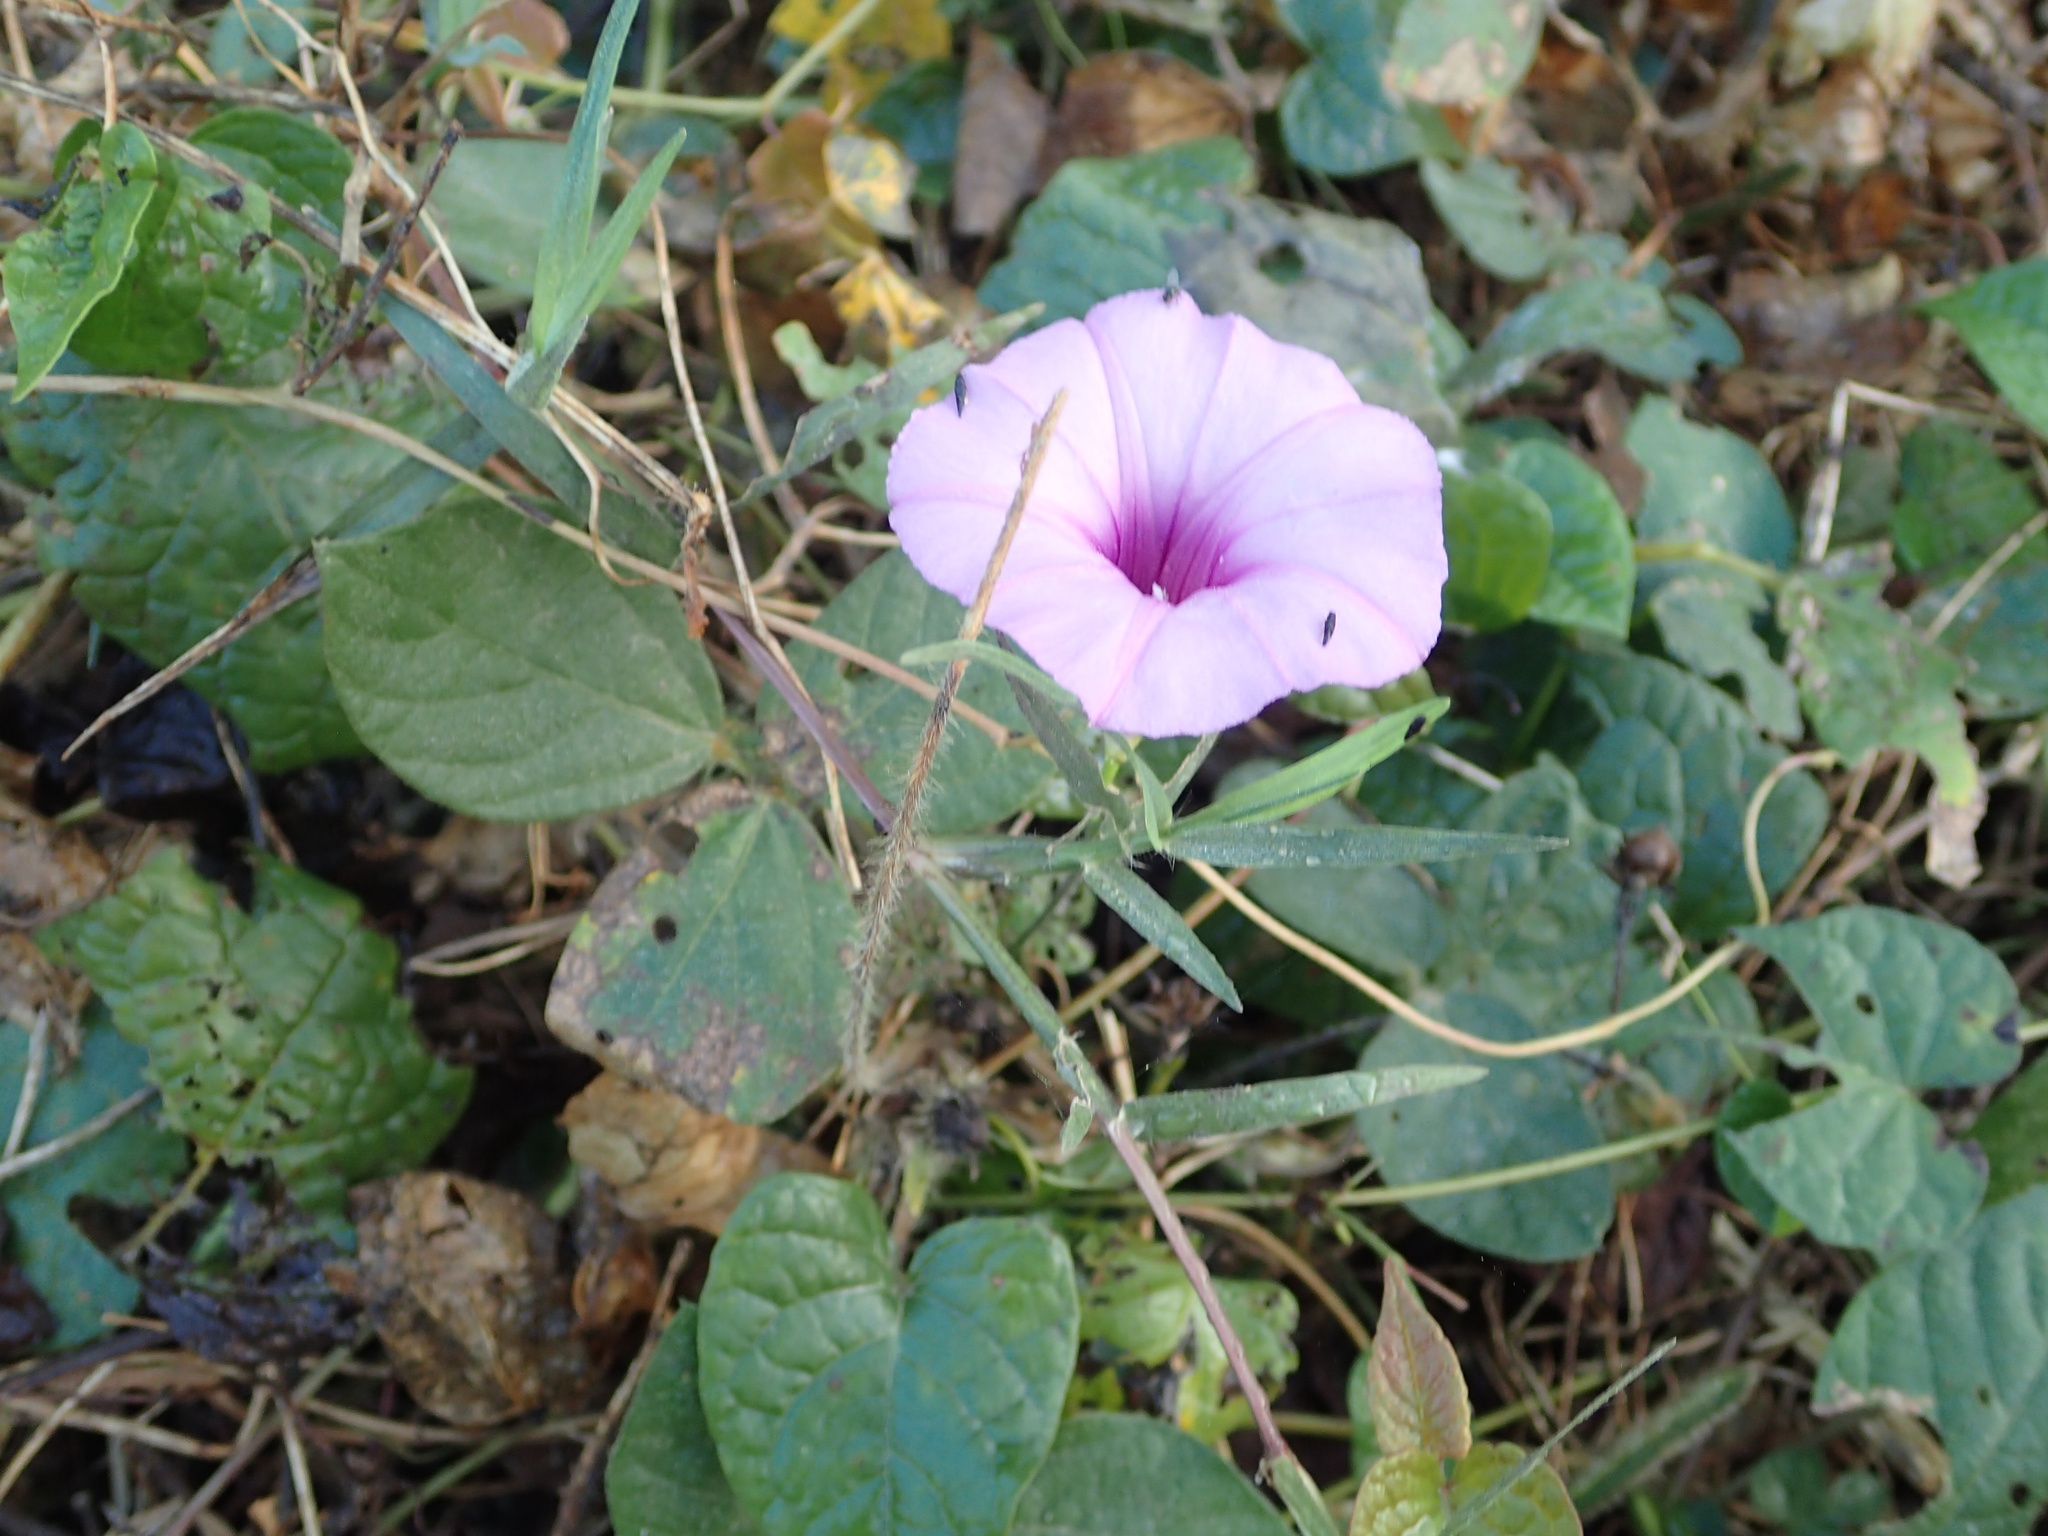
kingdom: Plantae
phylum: Tracheophyta
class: Magnoliopsida
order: Solanales
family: Convolvulaceae
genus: Ipomoea
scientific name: Ipomoea trifida
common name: Cotton morningglory
